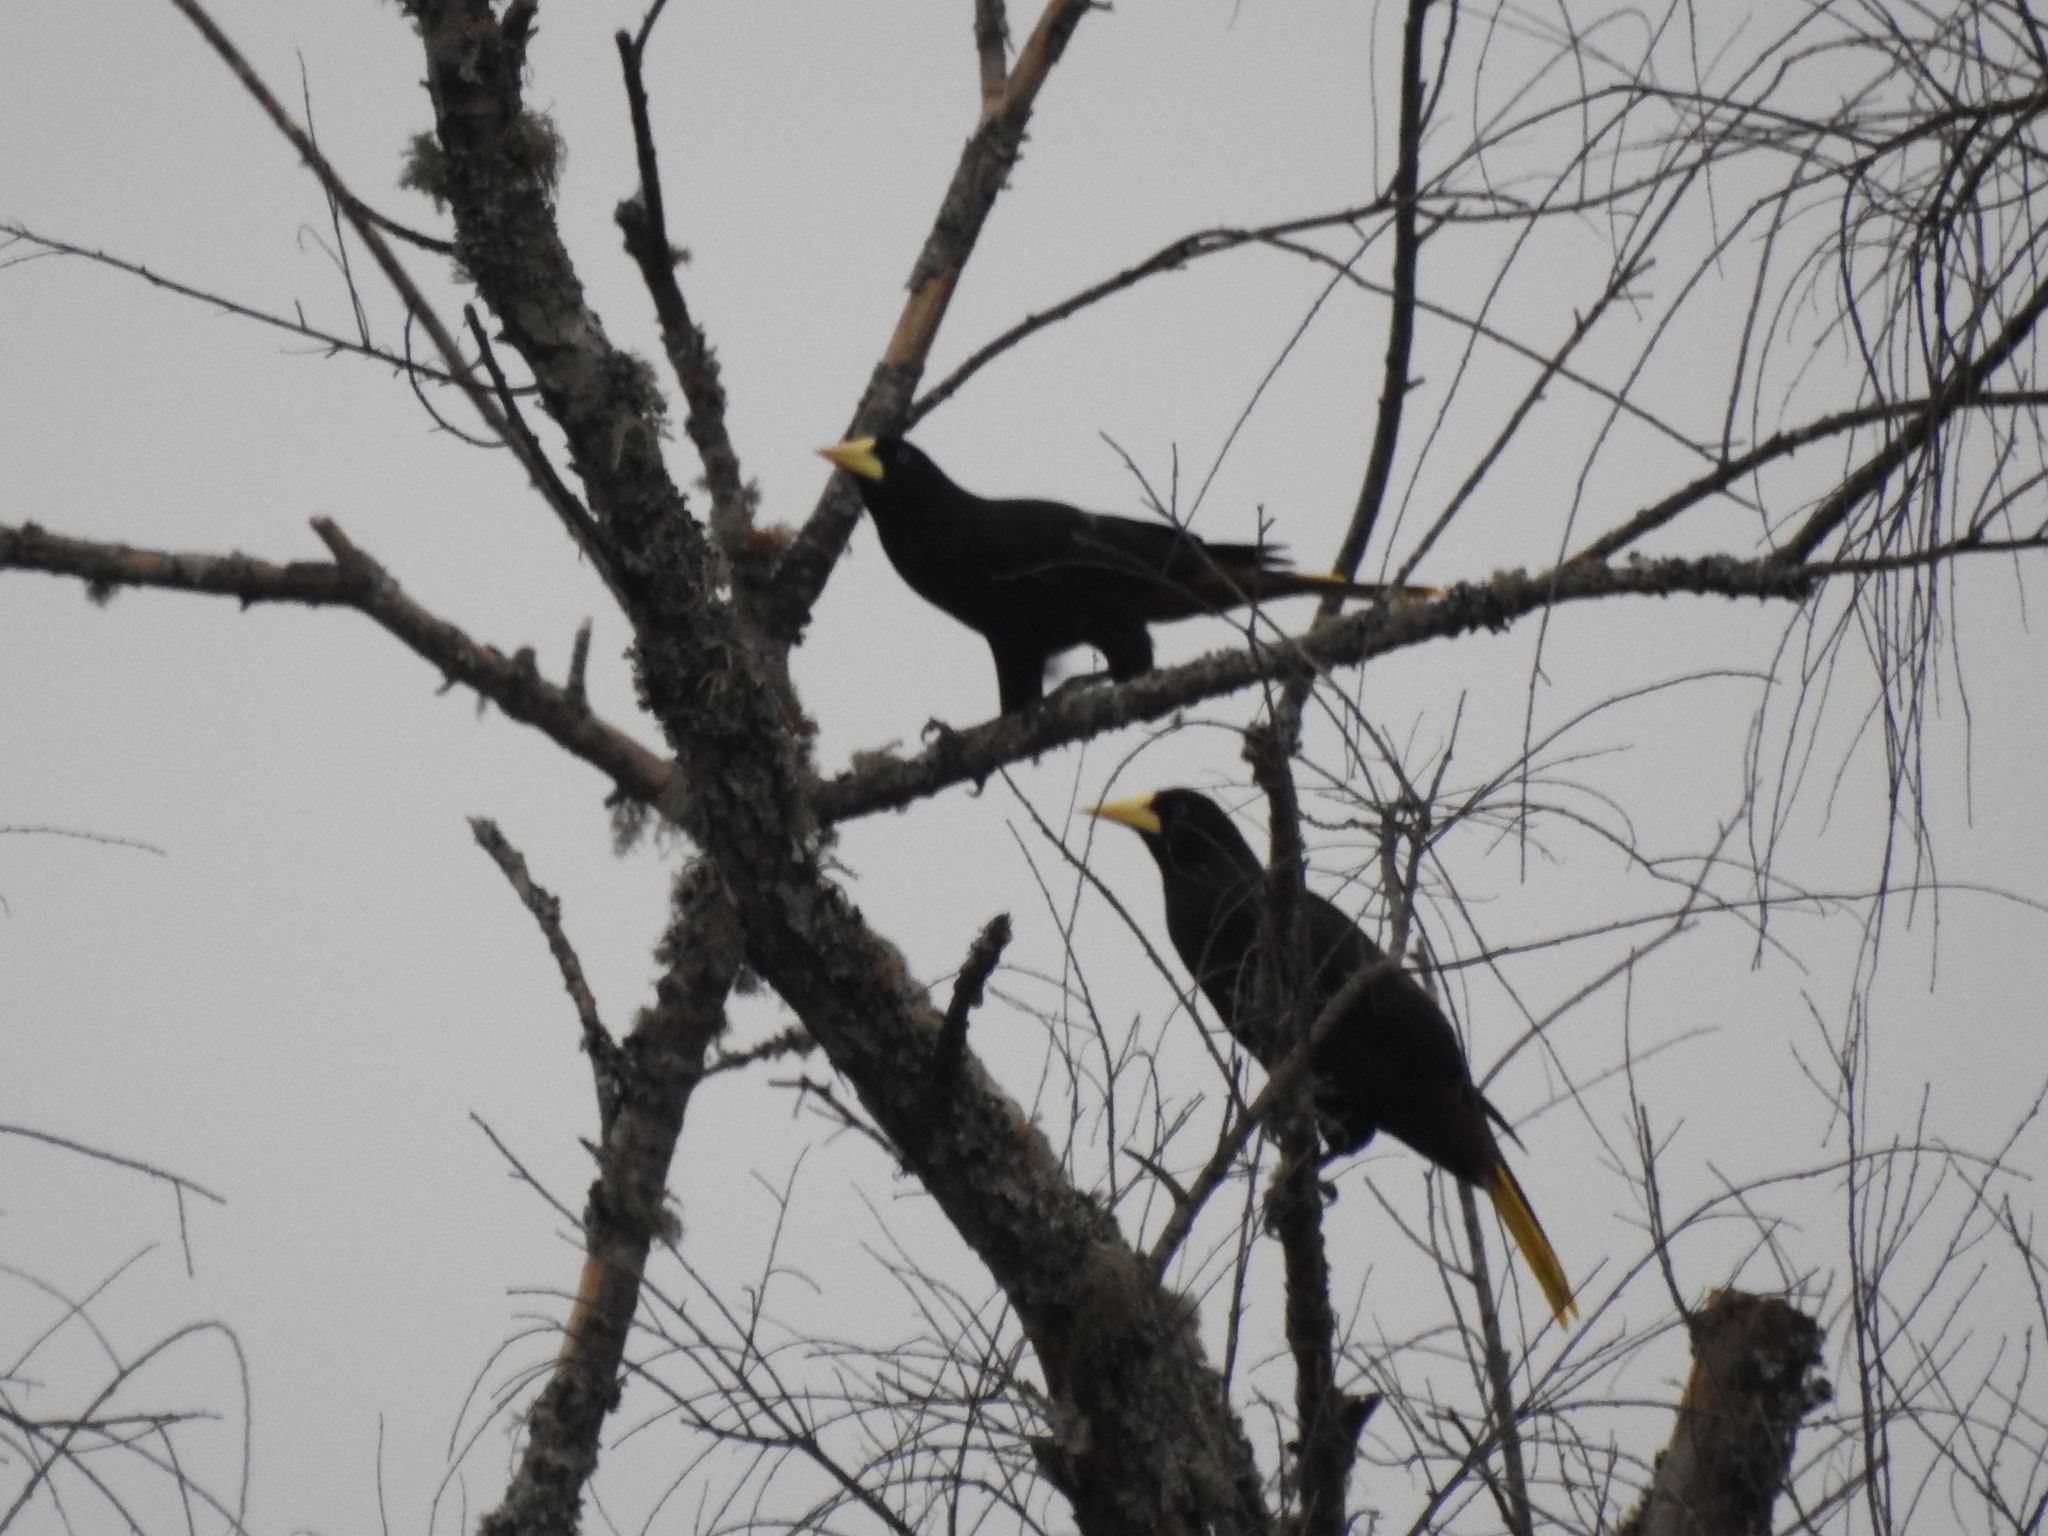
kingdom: Animalia
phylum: Chordata
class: Aves
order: Passeriformes
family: Icteridae
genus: Psarocolius
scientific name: Psarocolius decumanus
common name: Crested oropendola
